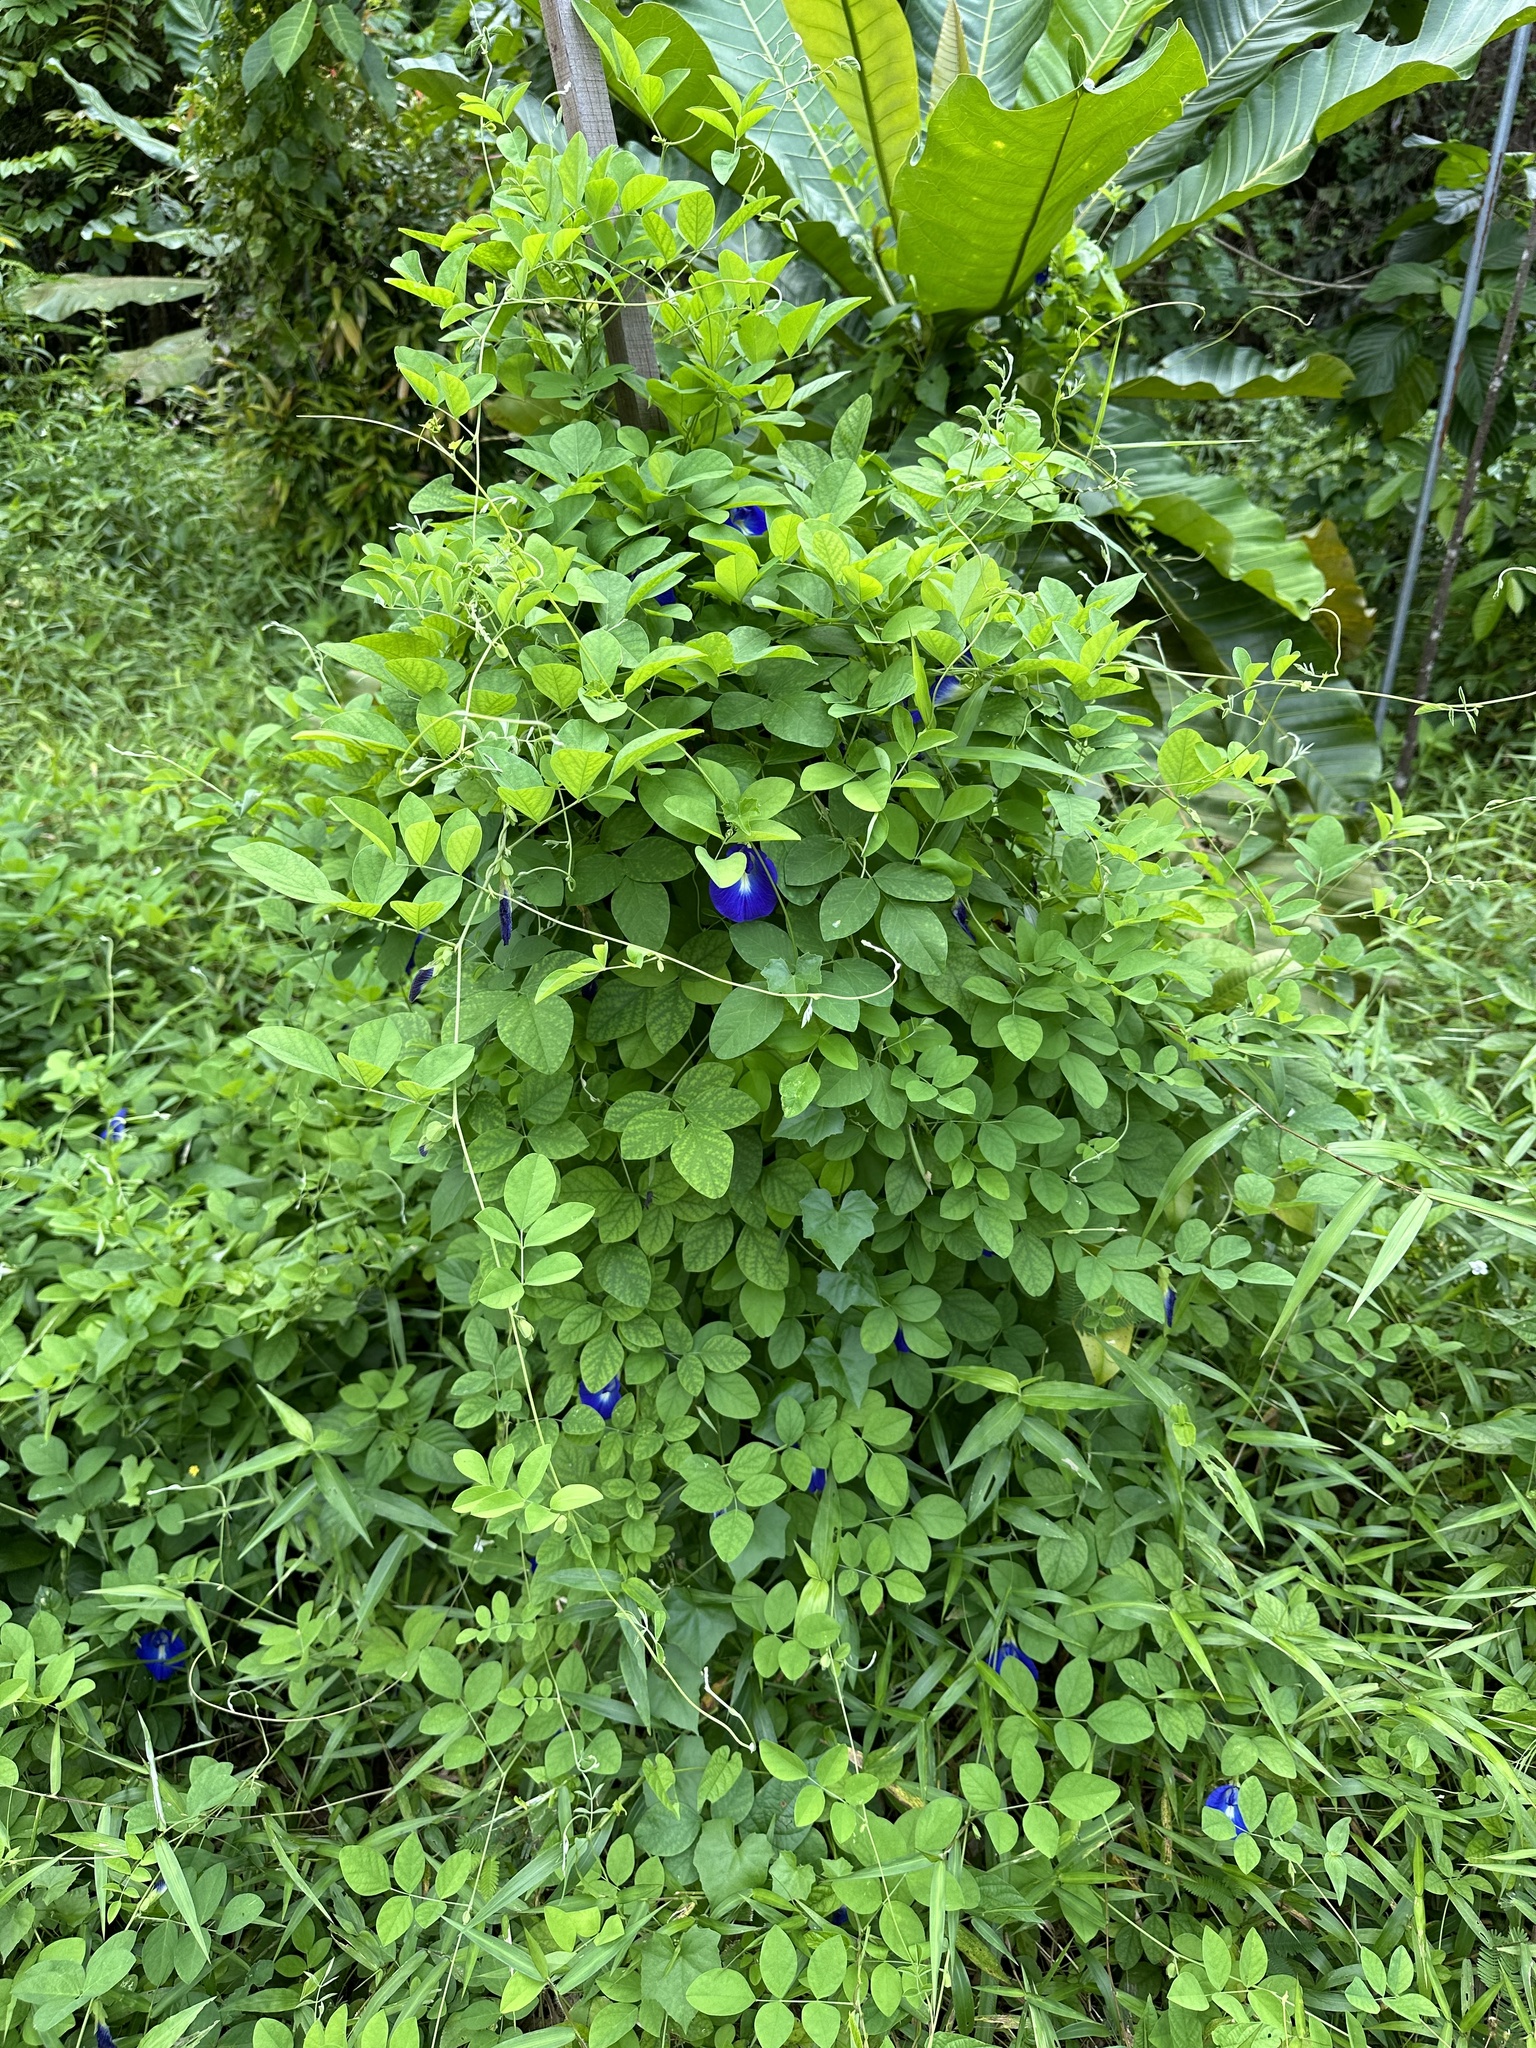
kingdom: Plantae
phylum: Tracheophyta
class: Magnoliopsida
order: Fabales
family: Fabaceae
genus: Clitoria
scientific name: Clitoria ternatea
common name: Asian pigeonwings
